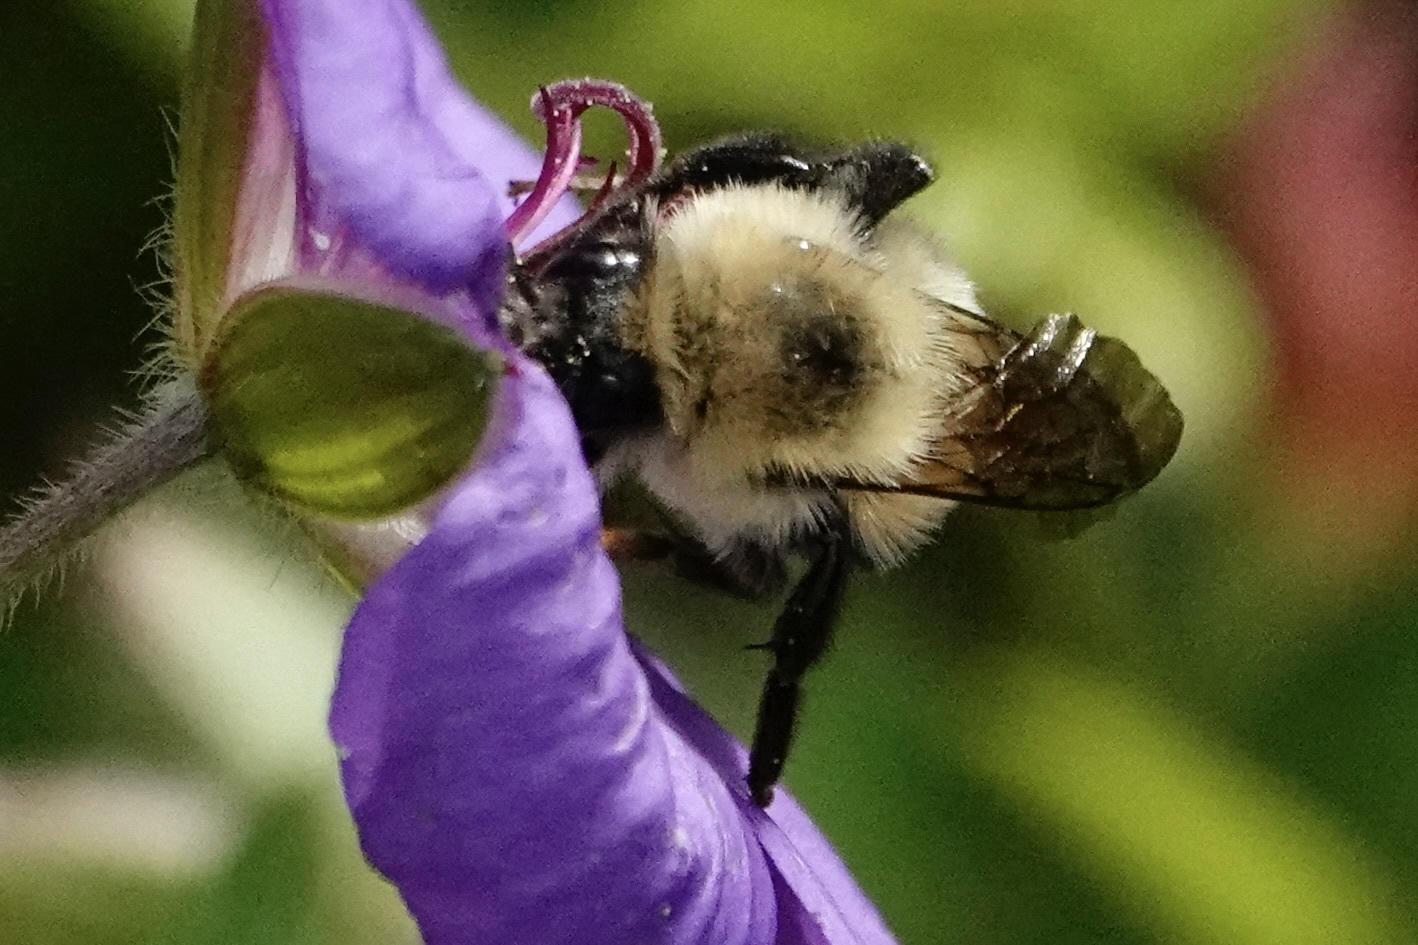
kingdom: Animalia
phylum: Arthropoda
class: Insecta
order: Hymenoptera
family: Apidae
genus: Bombus
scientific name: Bombus bimaculatus
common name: Two-spotted bumble bee
